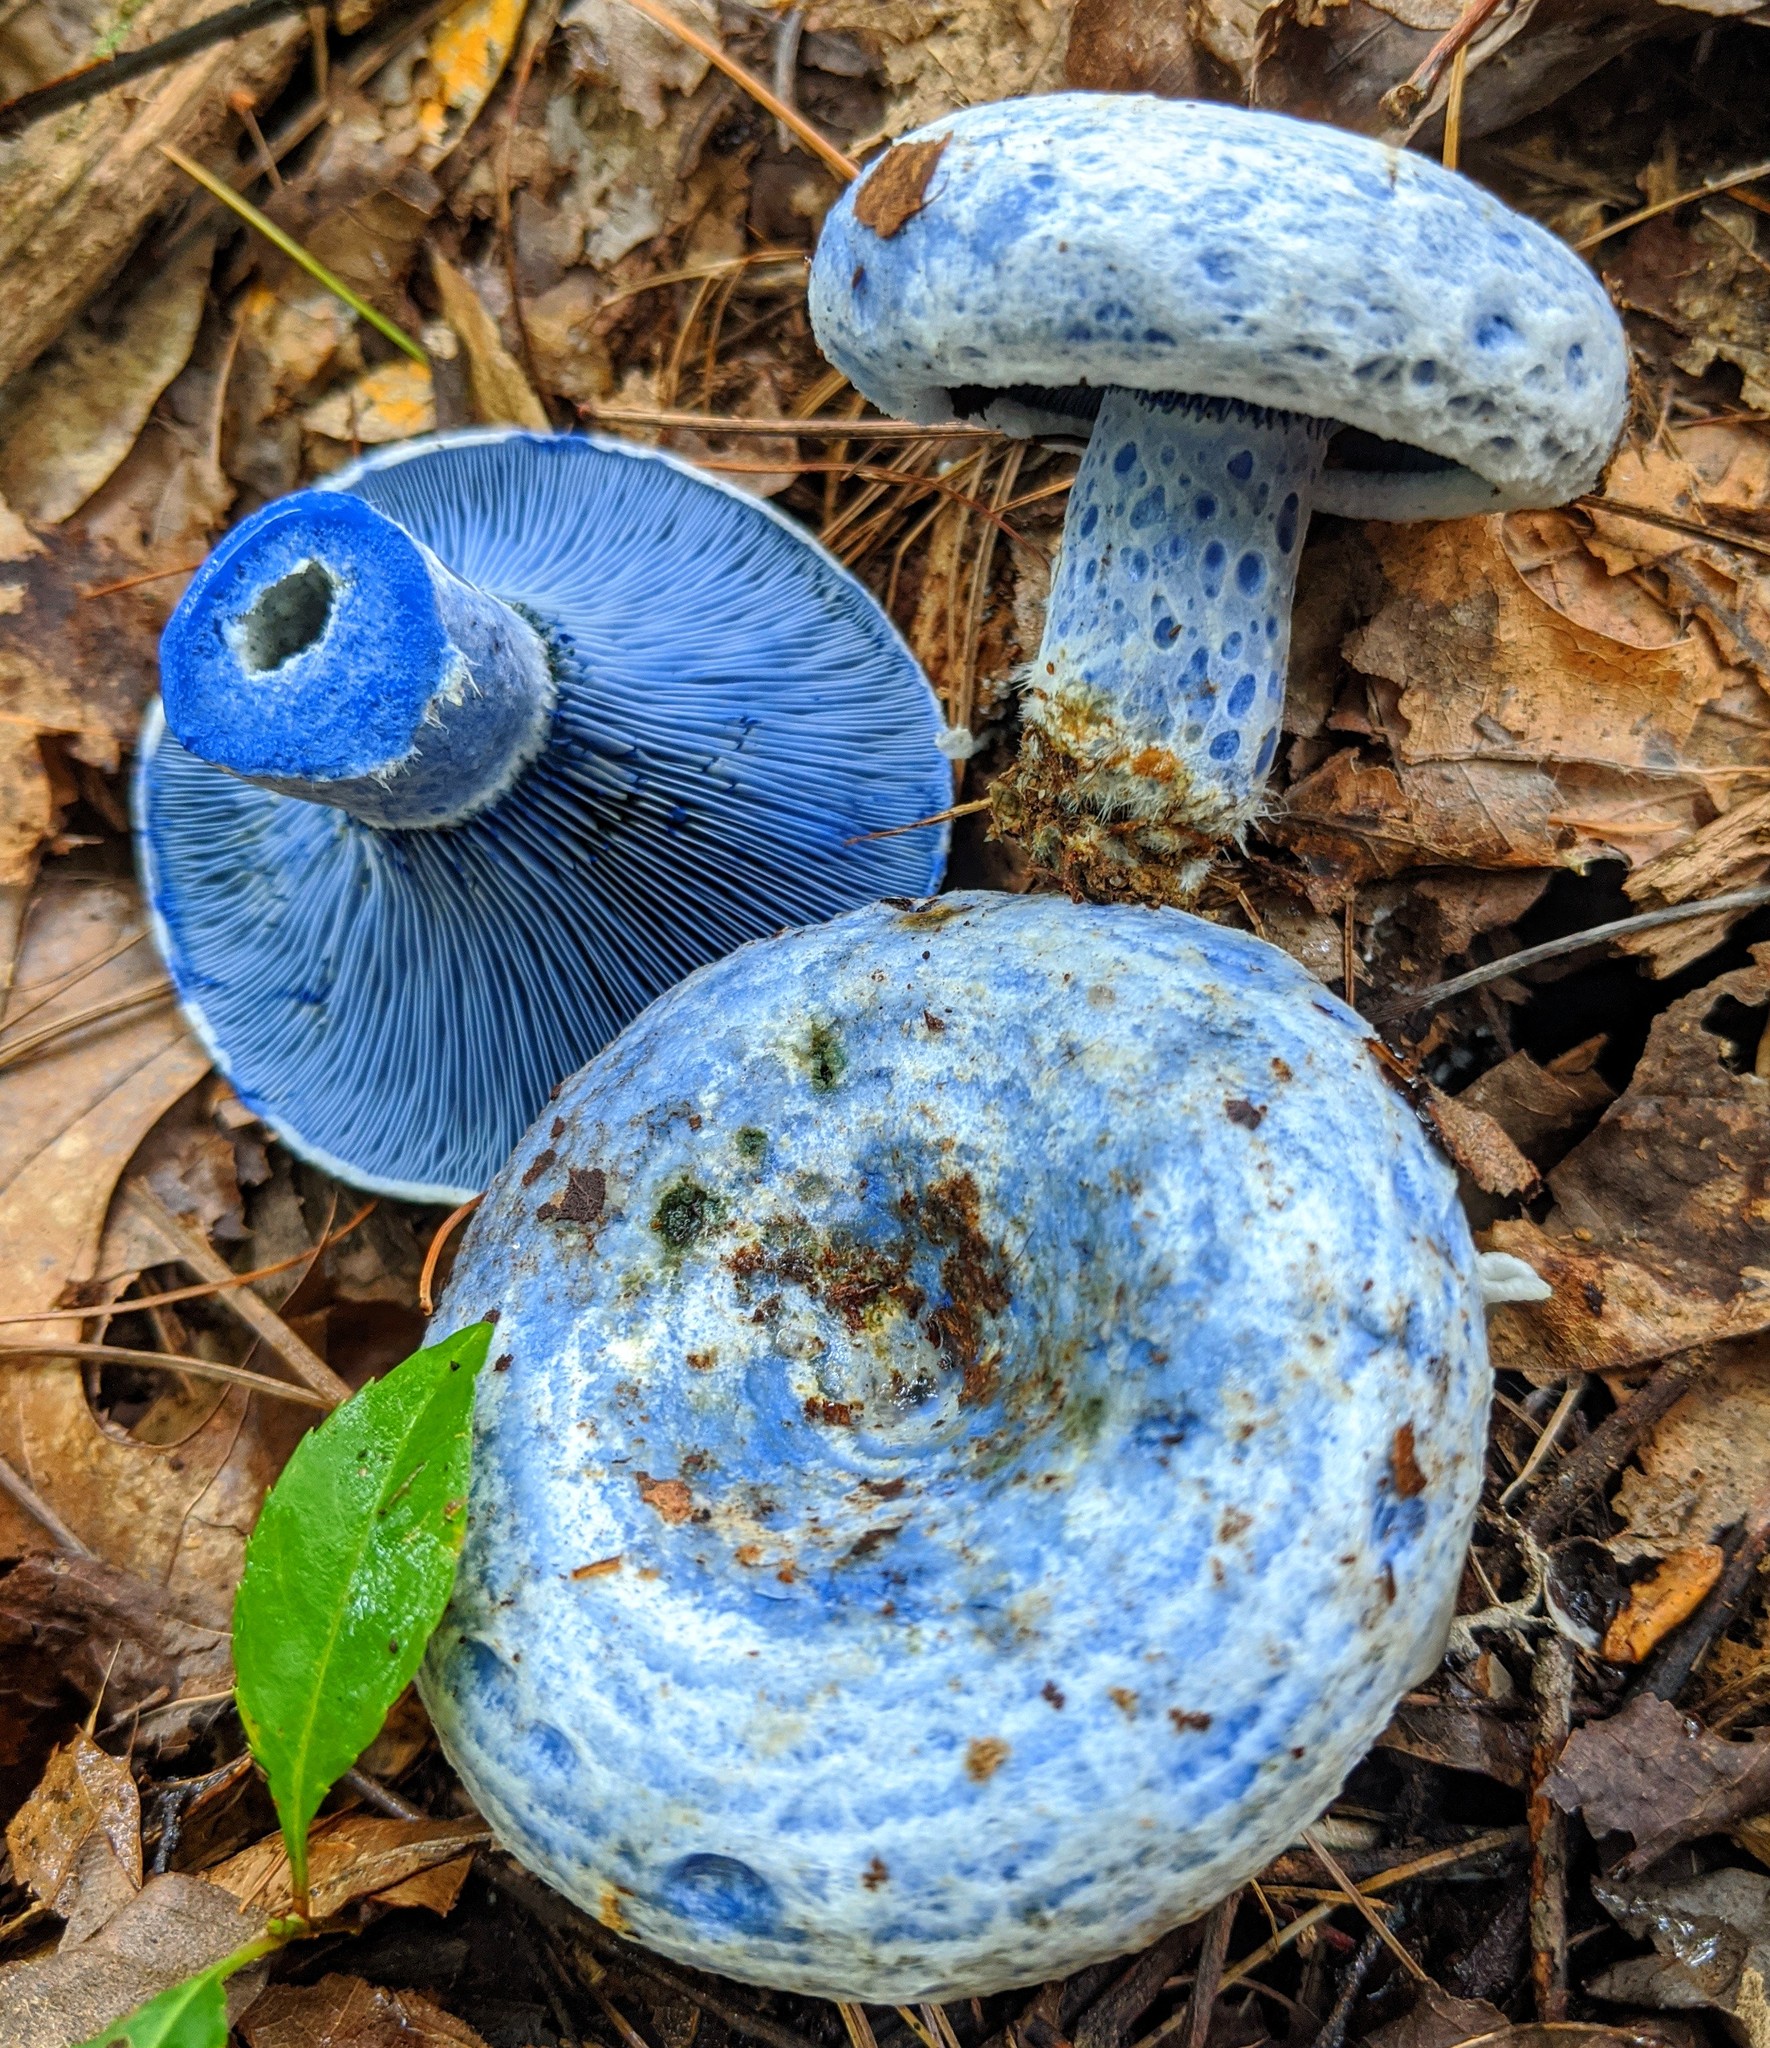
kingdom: Fungi
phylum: Basidiomycota
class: Agaricomycetes
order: Russulales
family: Russulaceae
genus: Lactarius
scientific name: Lactarius indigo
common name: Indigo milk cap
